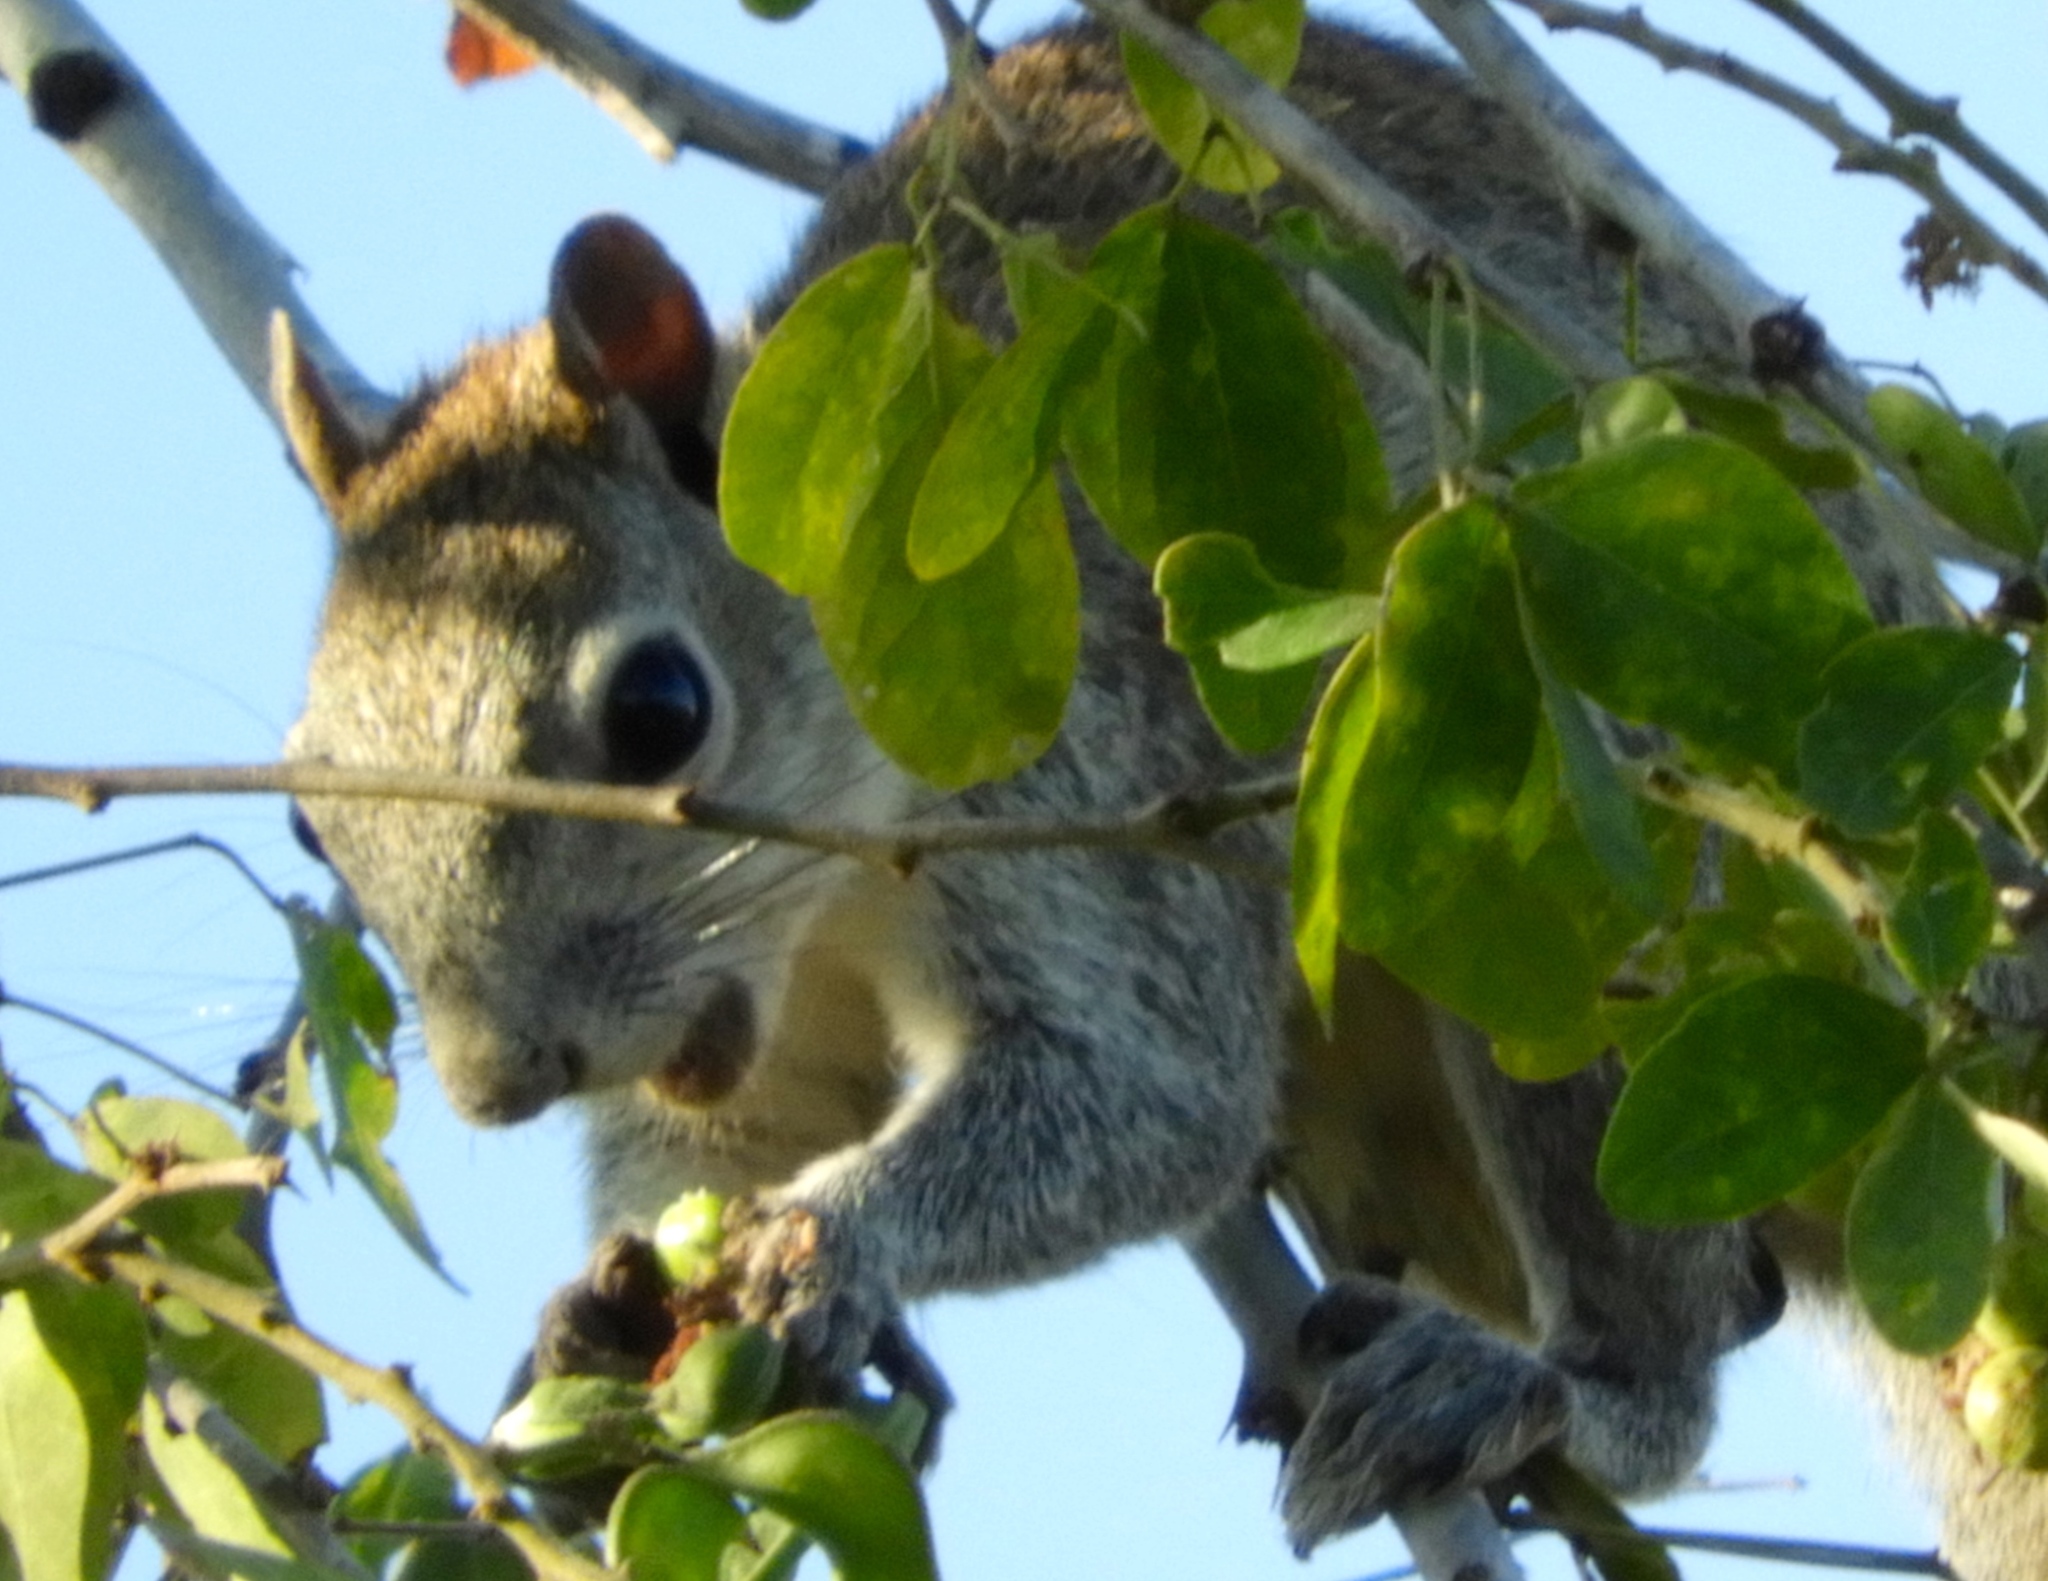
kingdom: Animalia
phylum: Chordata
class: Mammalia
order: Rodentia
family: Sciuridae
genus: Sciurus
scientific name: Sciurus colliaei
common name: Collie's squirrel
